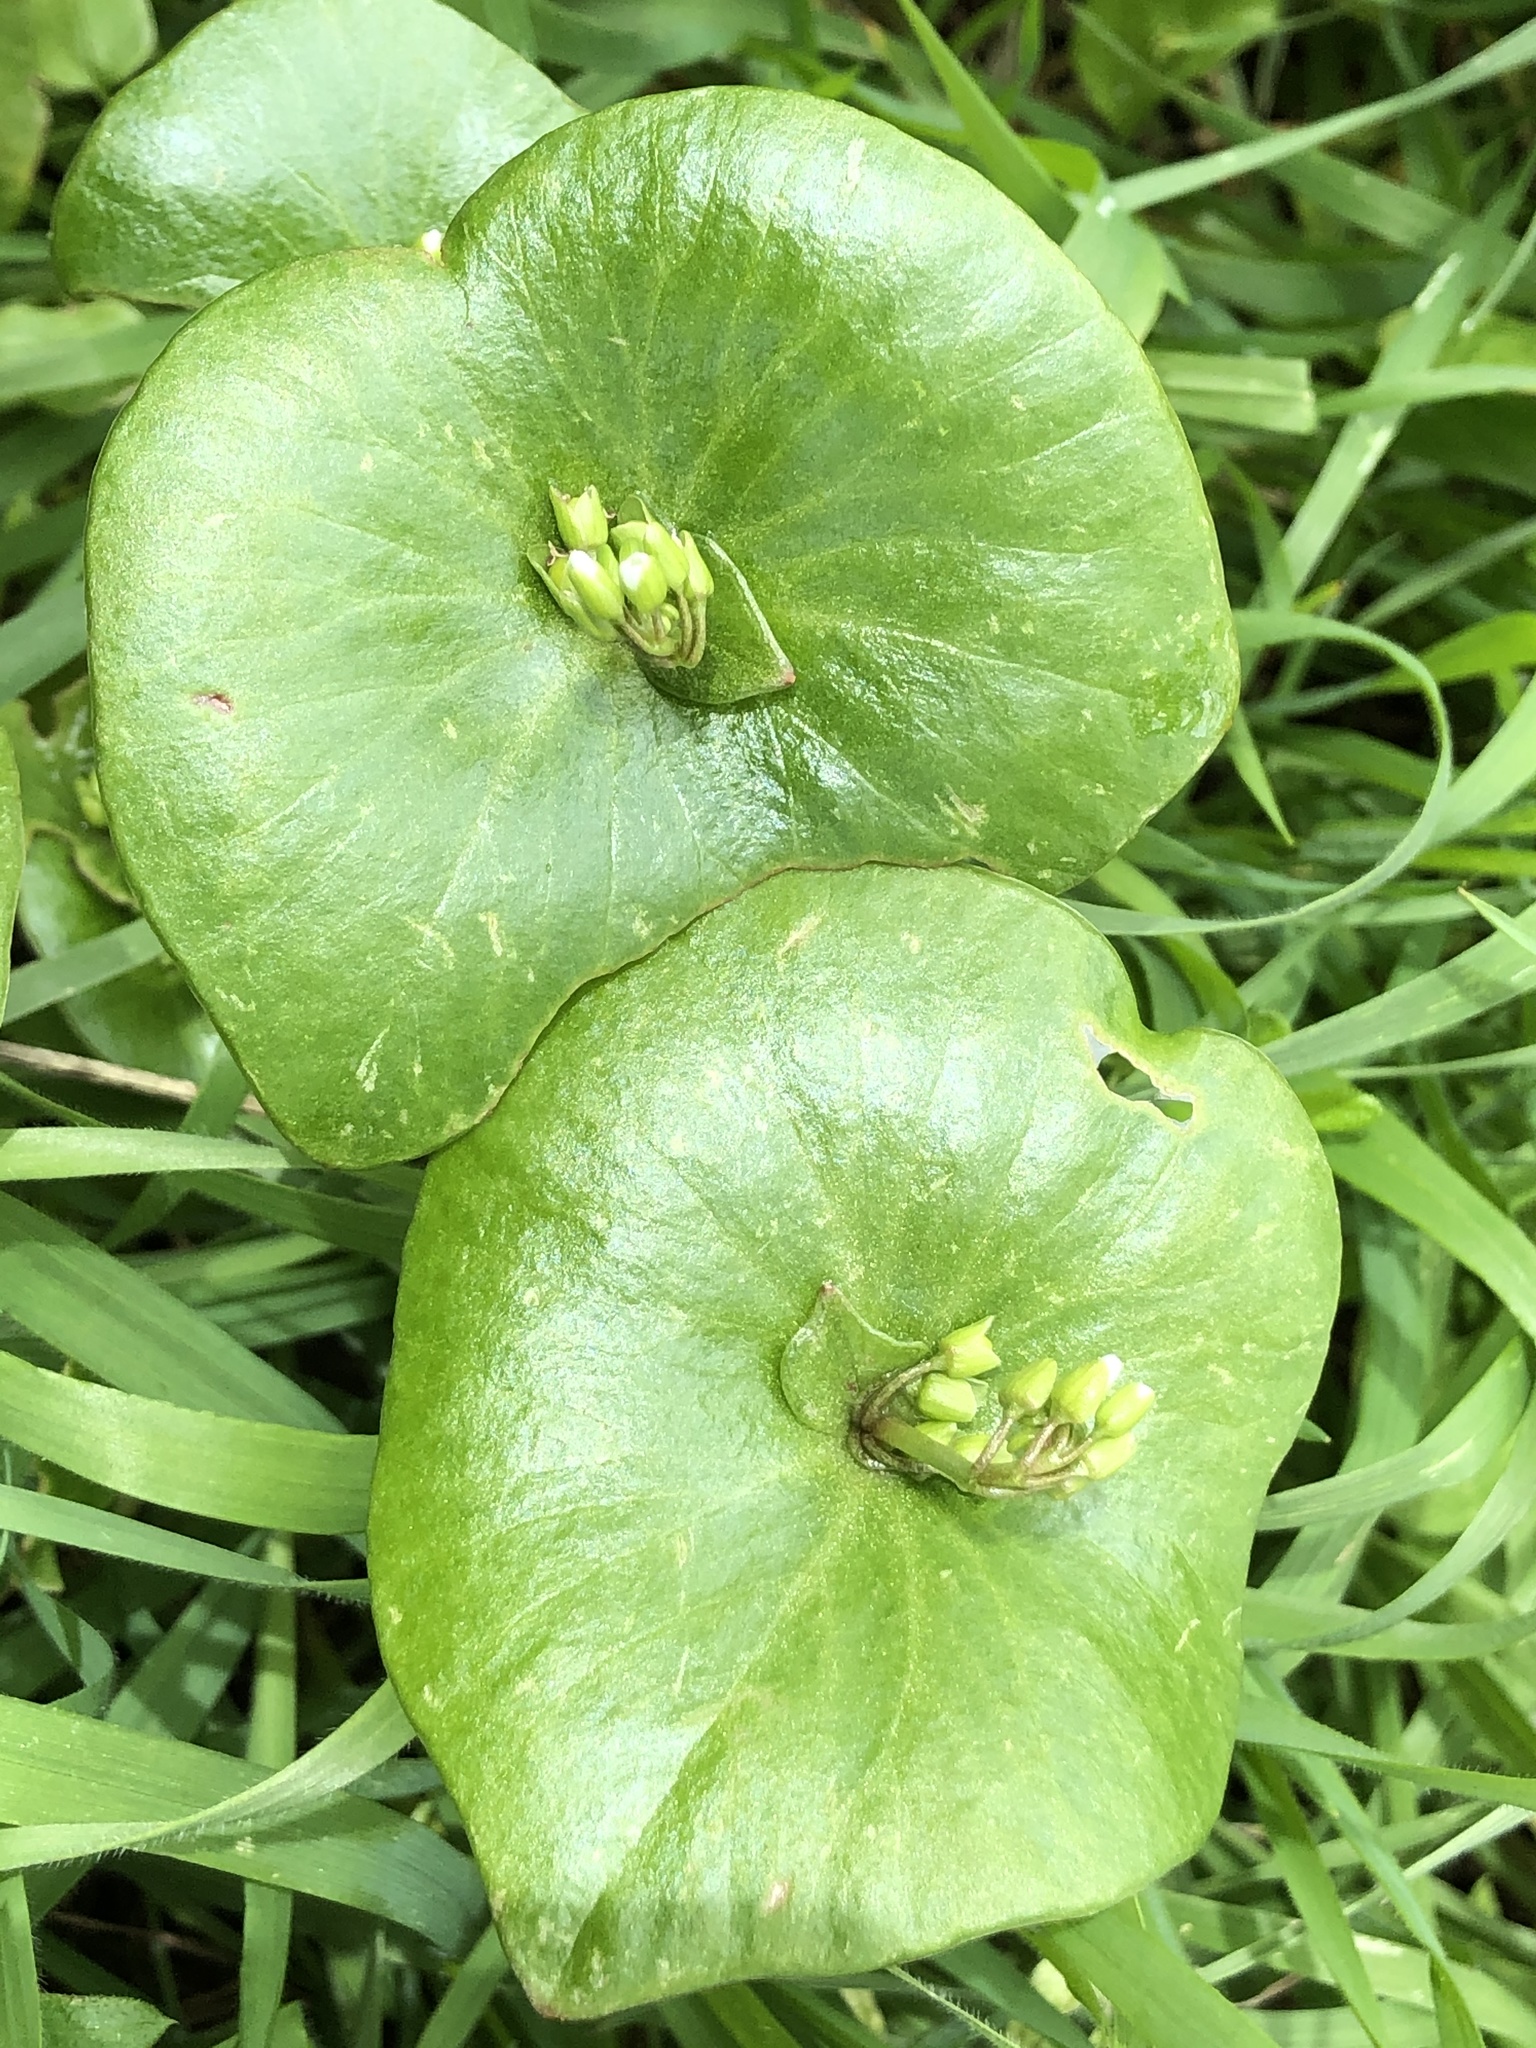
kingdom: Plantae
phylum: Tracheophyta
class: Magnoliopsida
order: Caryophyllales
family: Montiaceae
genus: Claytonia
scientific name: Claytonia perfoliata
